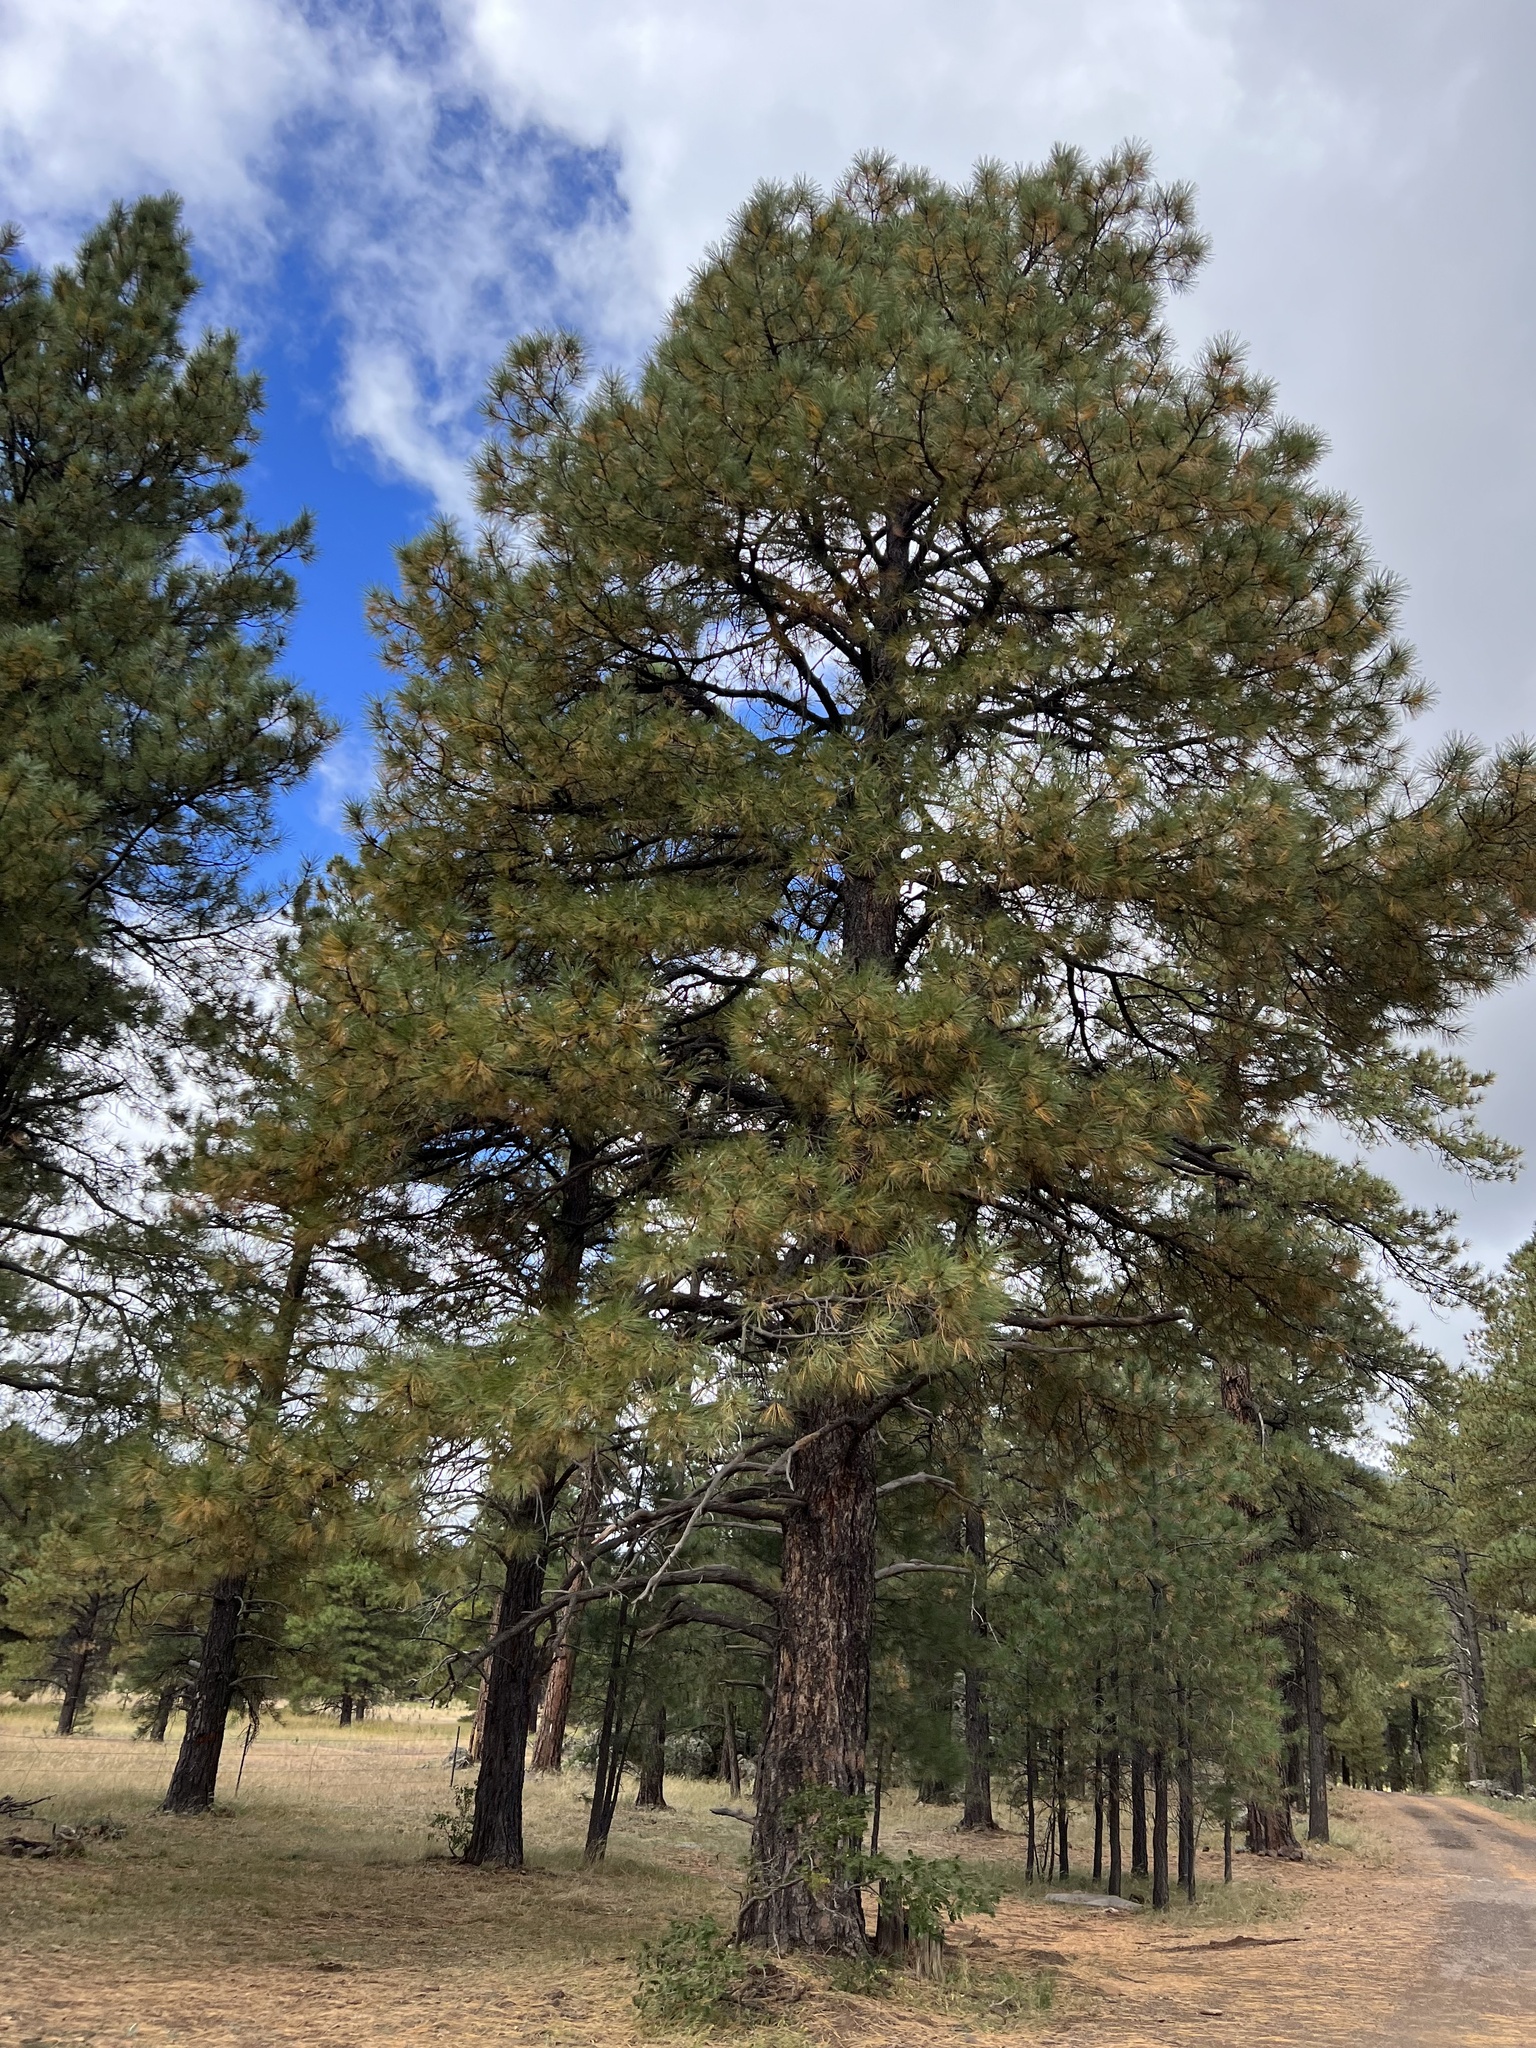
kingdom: Plantae
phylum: Tracheophyta
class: Pinopsida
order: Pinales
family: Pinaceae
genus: Pinus
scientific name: Pinus ponderosa
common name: Western yellow-pine
